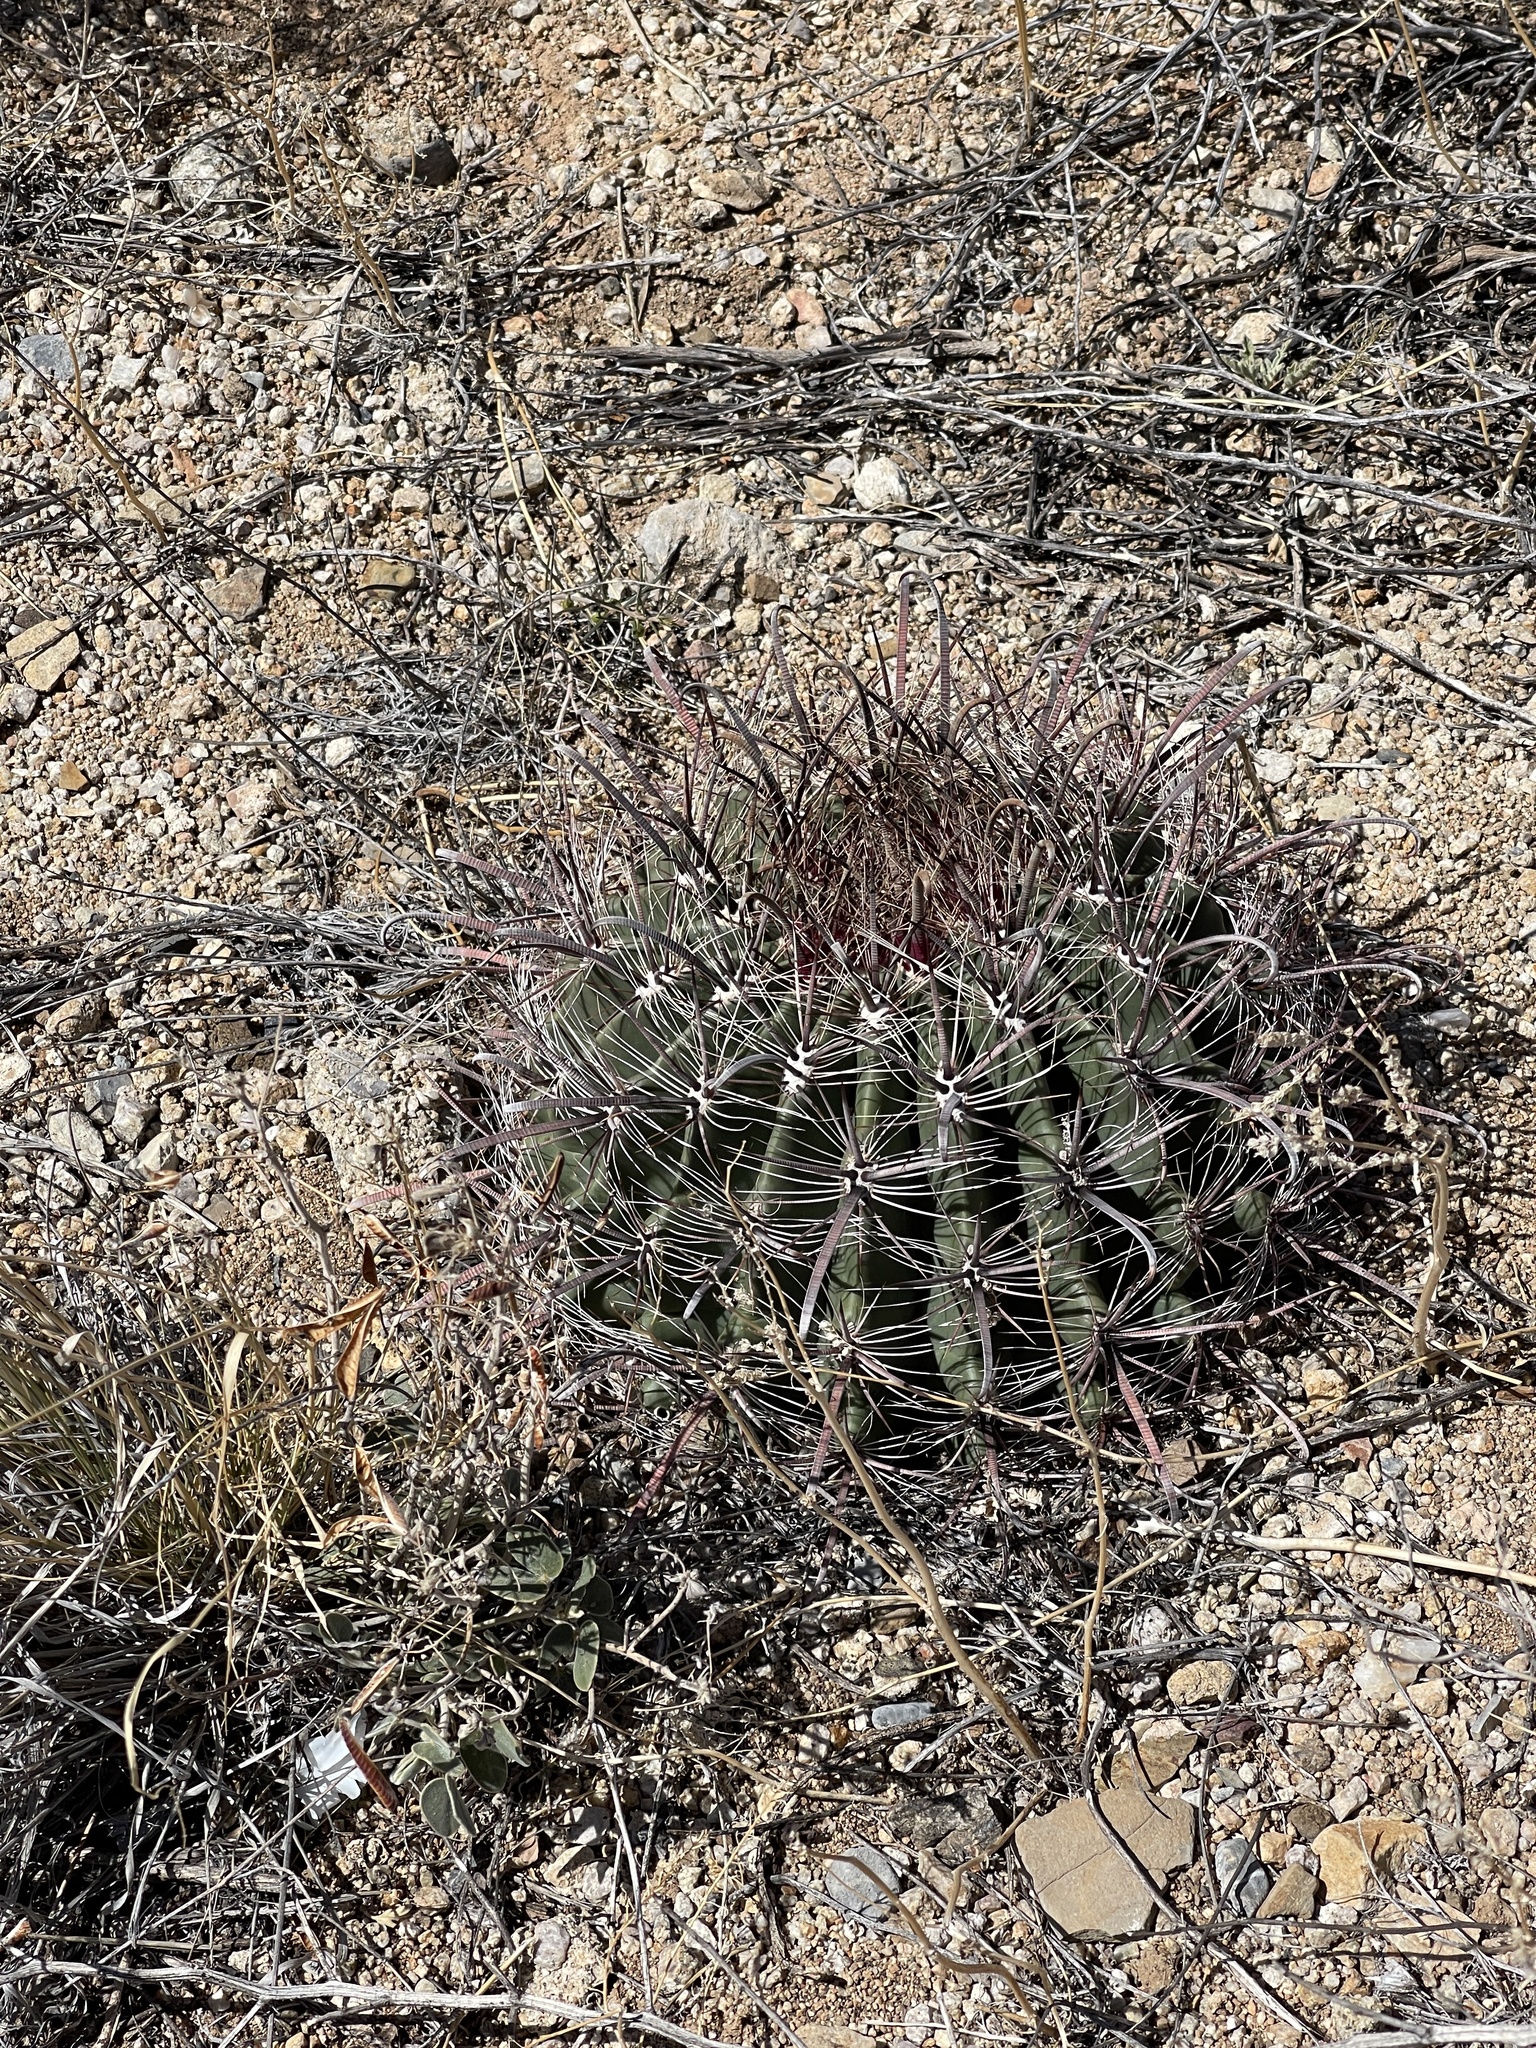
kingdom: Plantae
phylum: Tracheophyta
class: Magnoliopsida
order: Caryophyllales
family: Cactaceae
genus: Ferocactus
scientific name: Ferocactus wislizeni
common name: Candy barrel cactus
